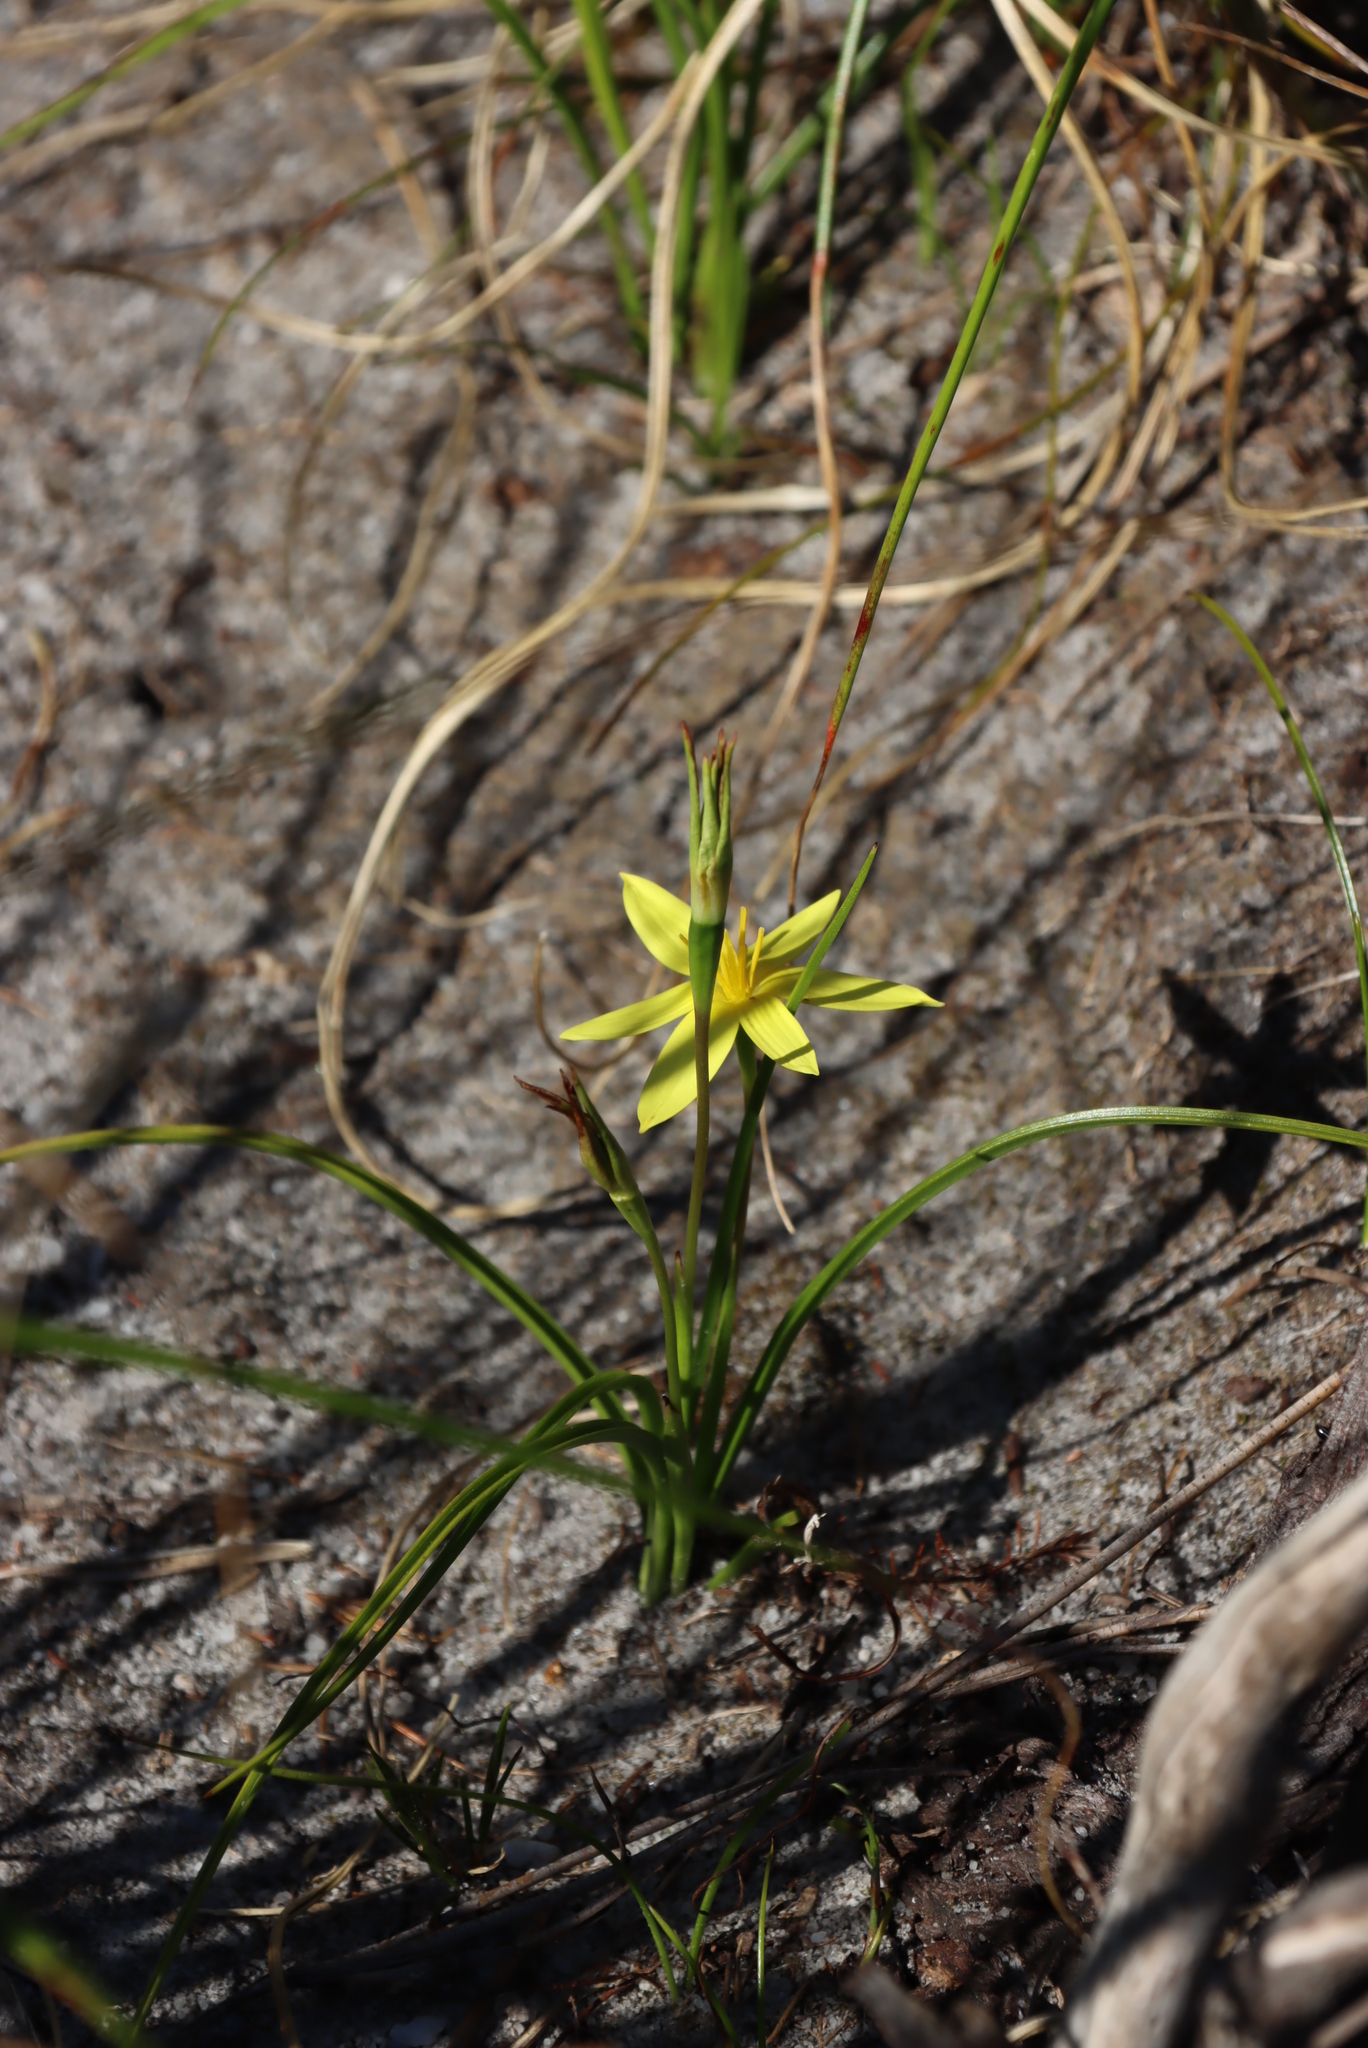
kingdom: Plantae
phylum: Tracheophyta
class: Liliopsida
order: Asparagales
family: Hypoxidaceae
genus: Pauridia
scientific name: Pauridia capensis
